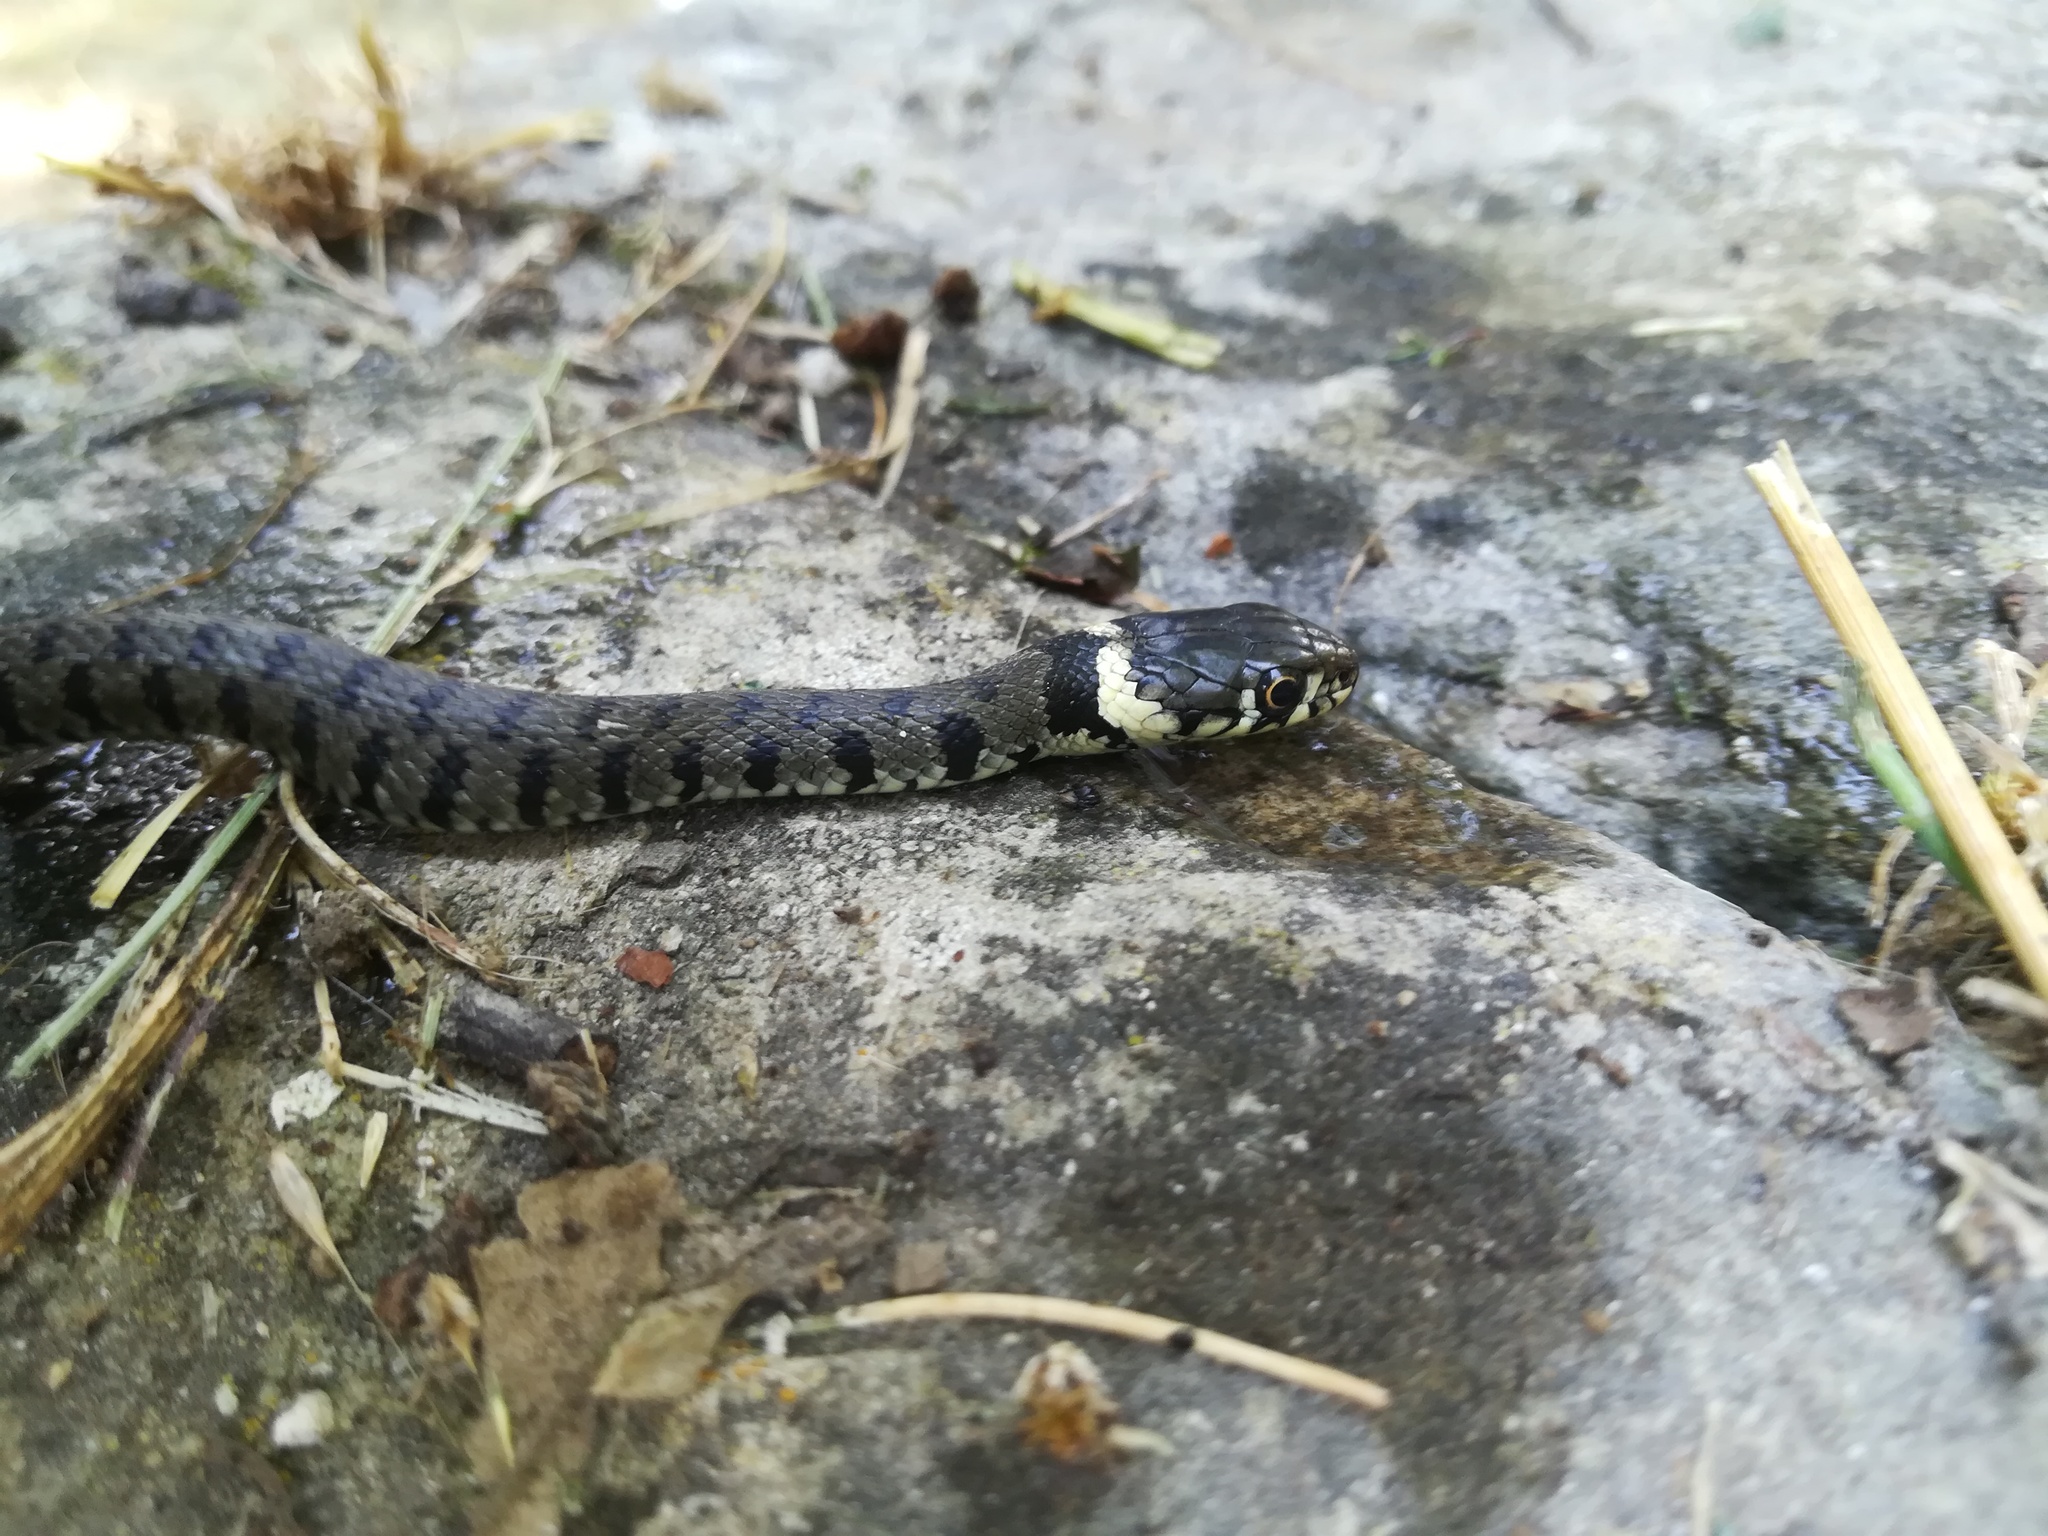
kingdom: Animalia
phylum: Chordata
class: Squamata
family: Colubridae
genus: Natrix
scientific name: Natrix helvetica
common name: Banded grass snake
